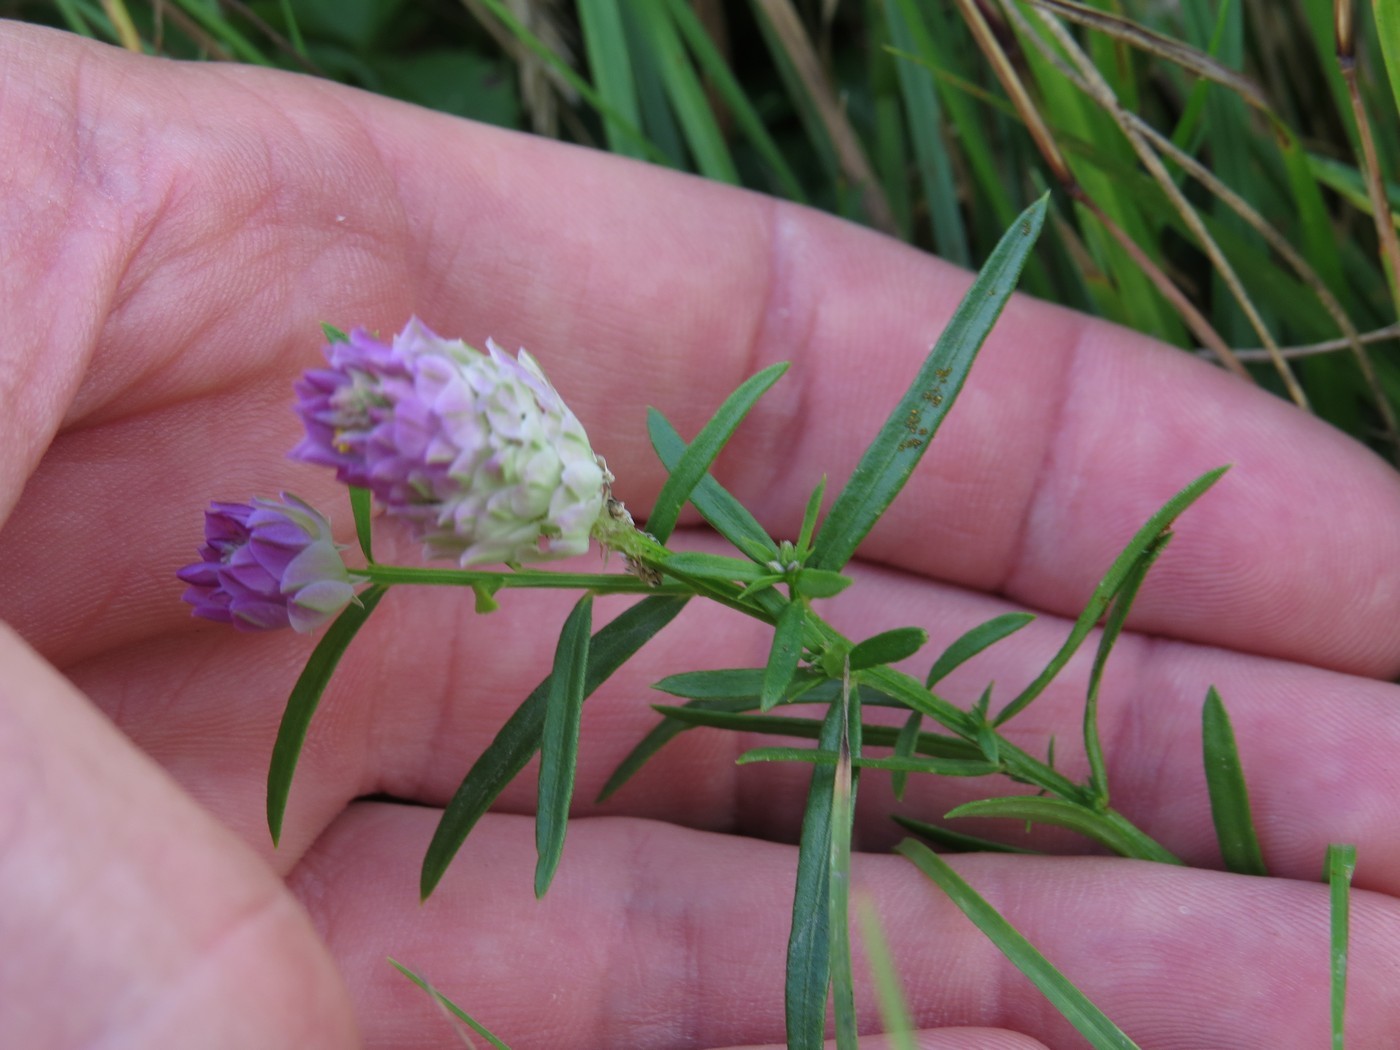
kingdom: Plantae
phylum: Tracheophyta
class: Magnoliopsida
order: Fabales
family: Polygalaceae
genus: Polygala
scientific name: Polygala sanguinea
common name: Blood milkwort
